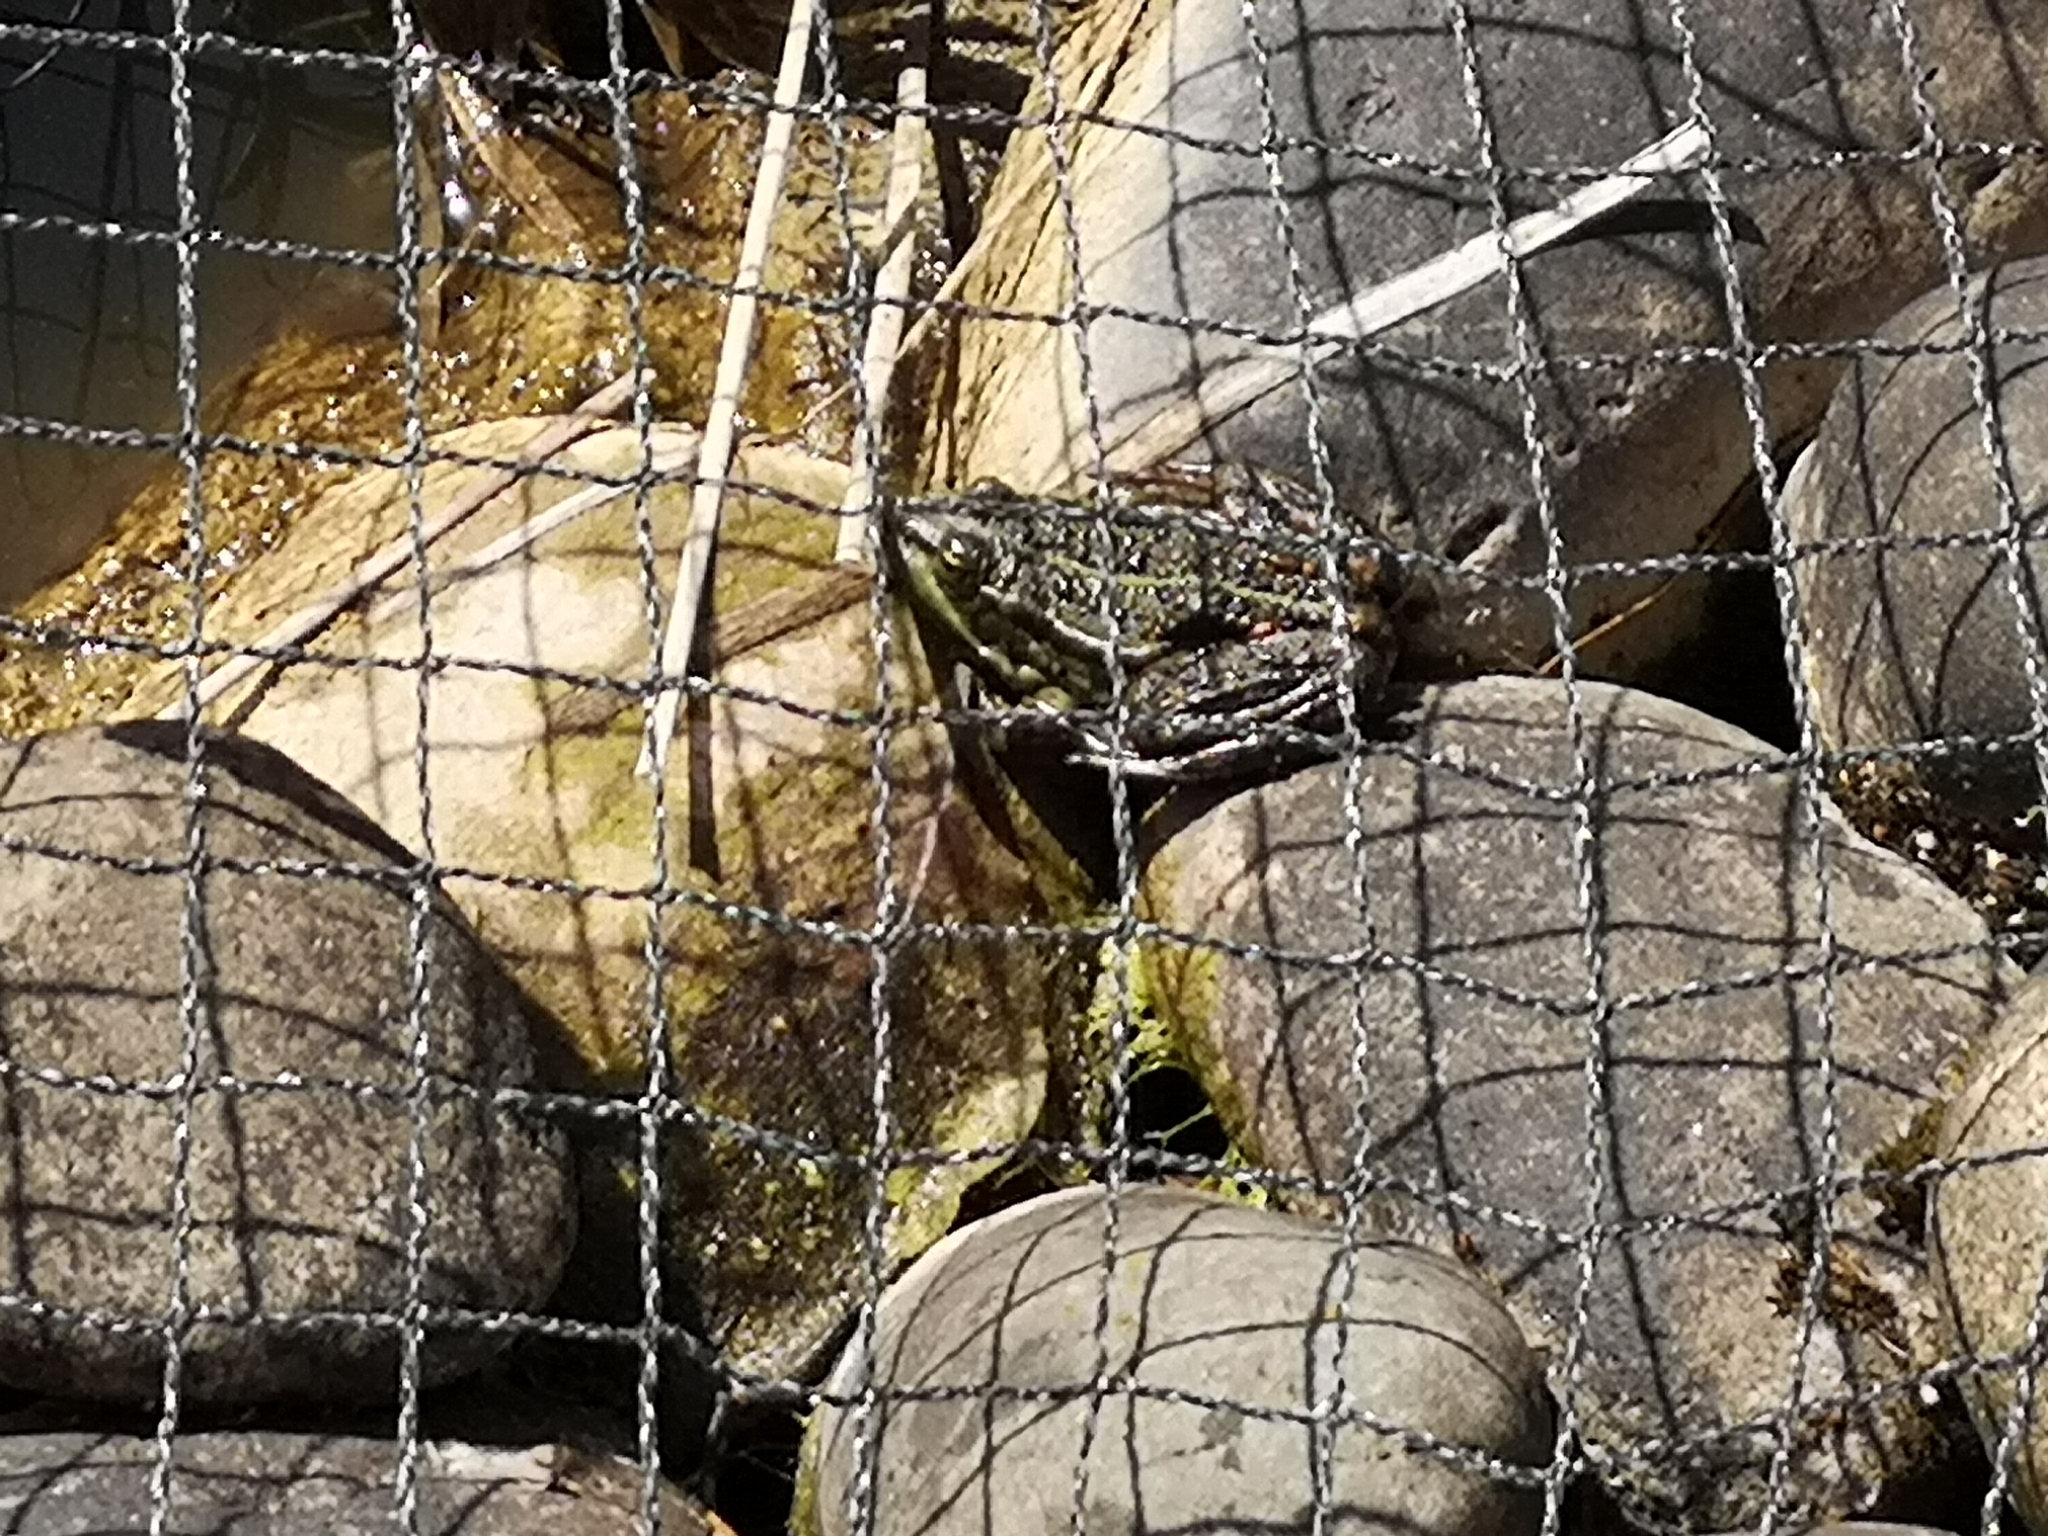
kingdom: Animalia
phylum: Chordata
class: Amphibia
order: Anura
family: Ranidae
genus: Pelophylax
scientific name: Pelophylax
